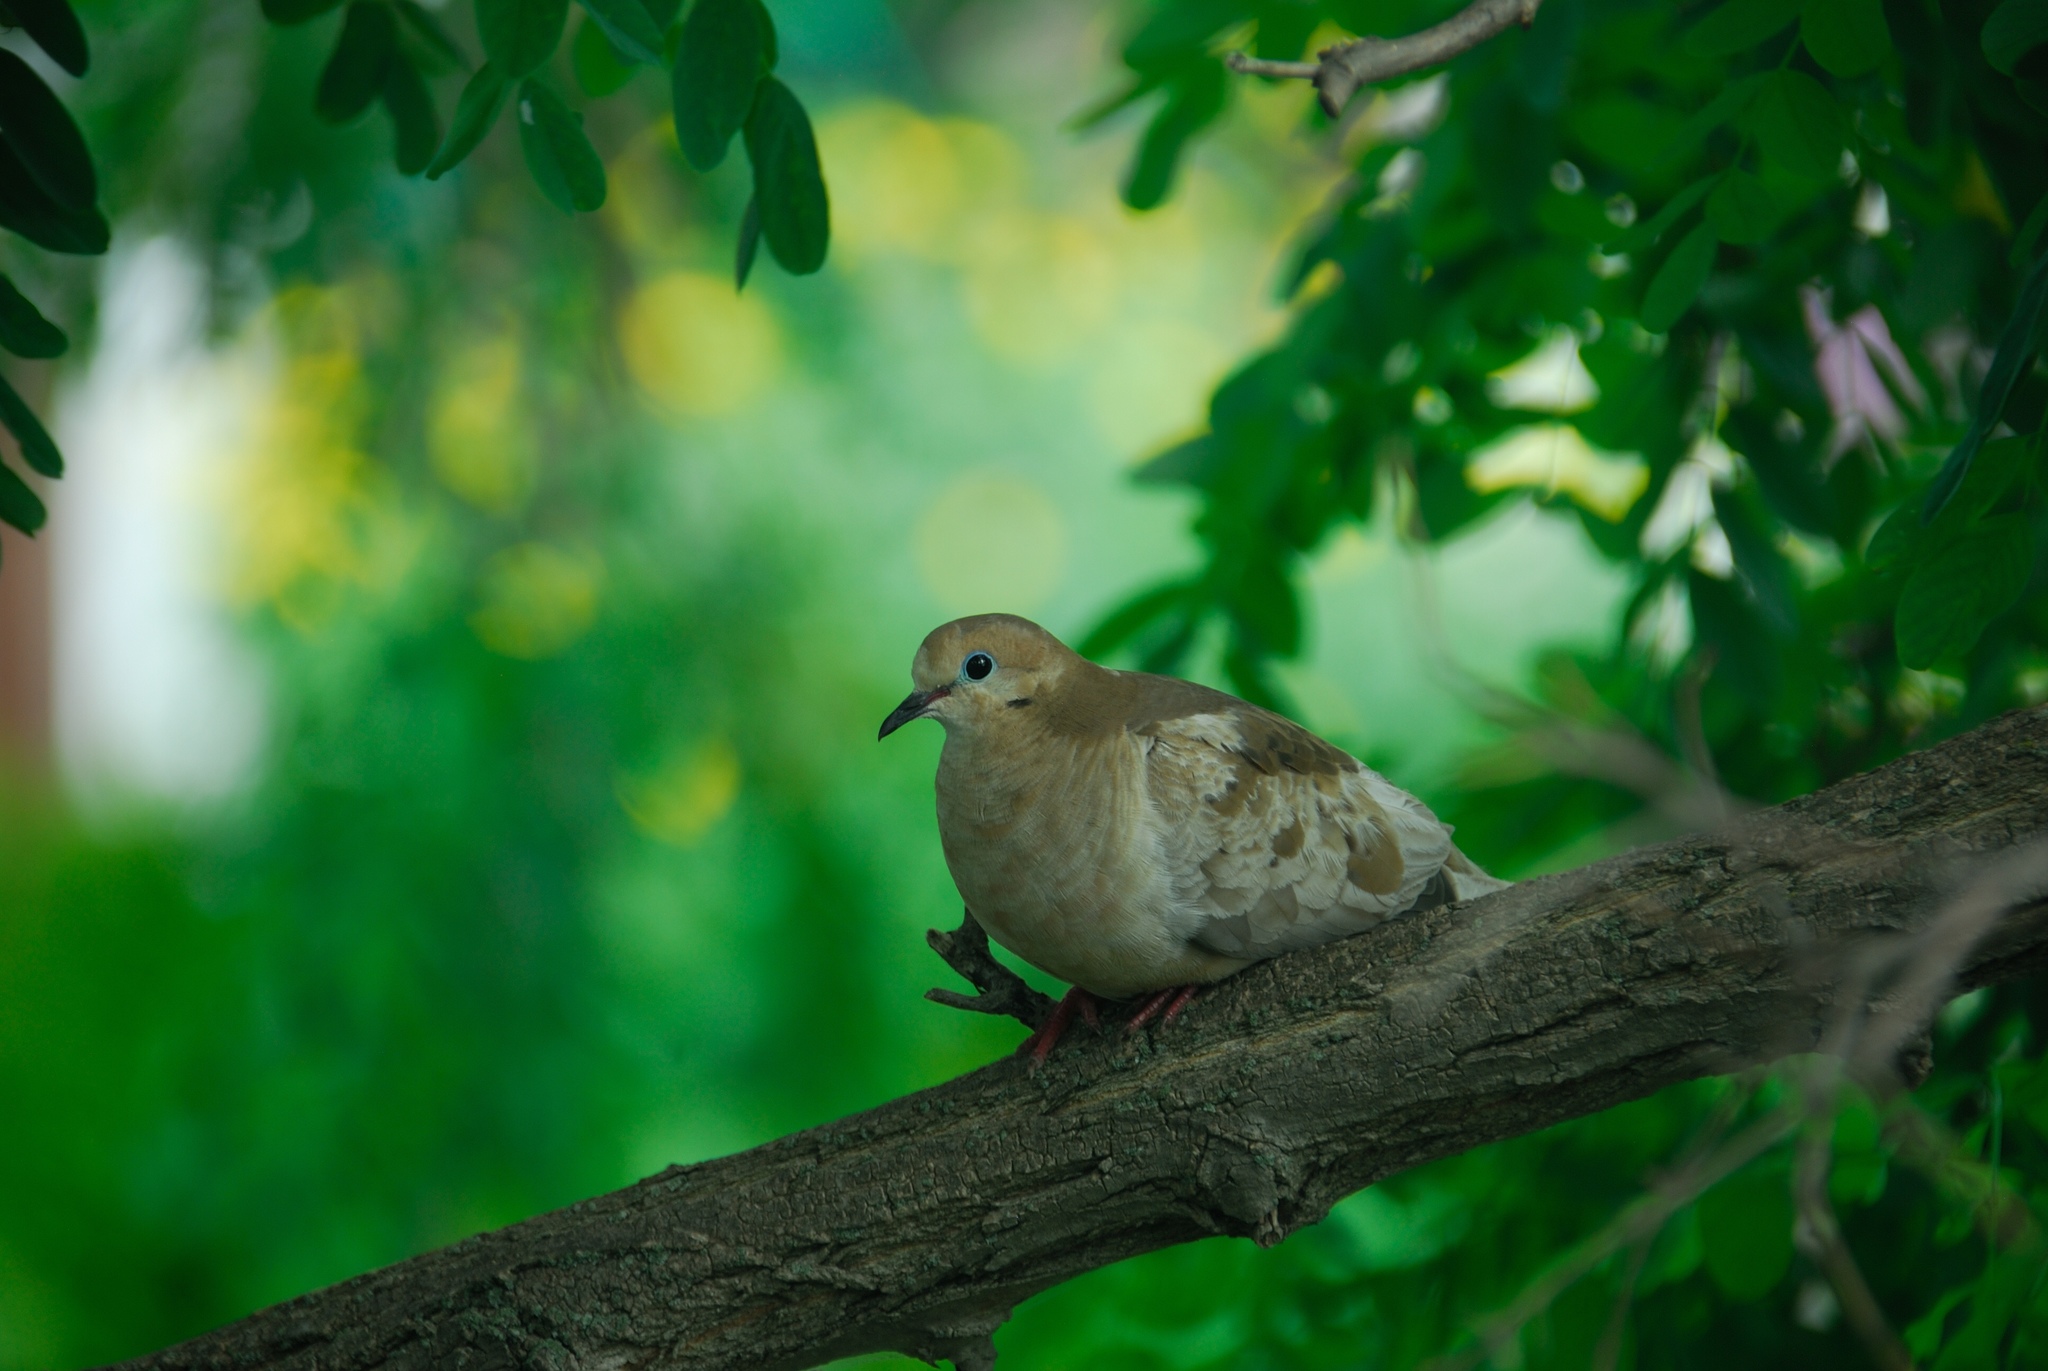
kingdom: Animalia
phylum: Chordata
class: Aves
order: Columbiformes
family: Columbidae
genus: Zenaida
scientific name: Zenaida macroura
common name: Mourning dove
